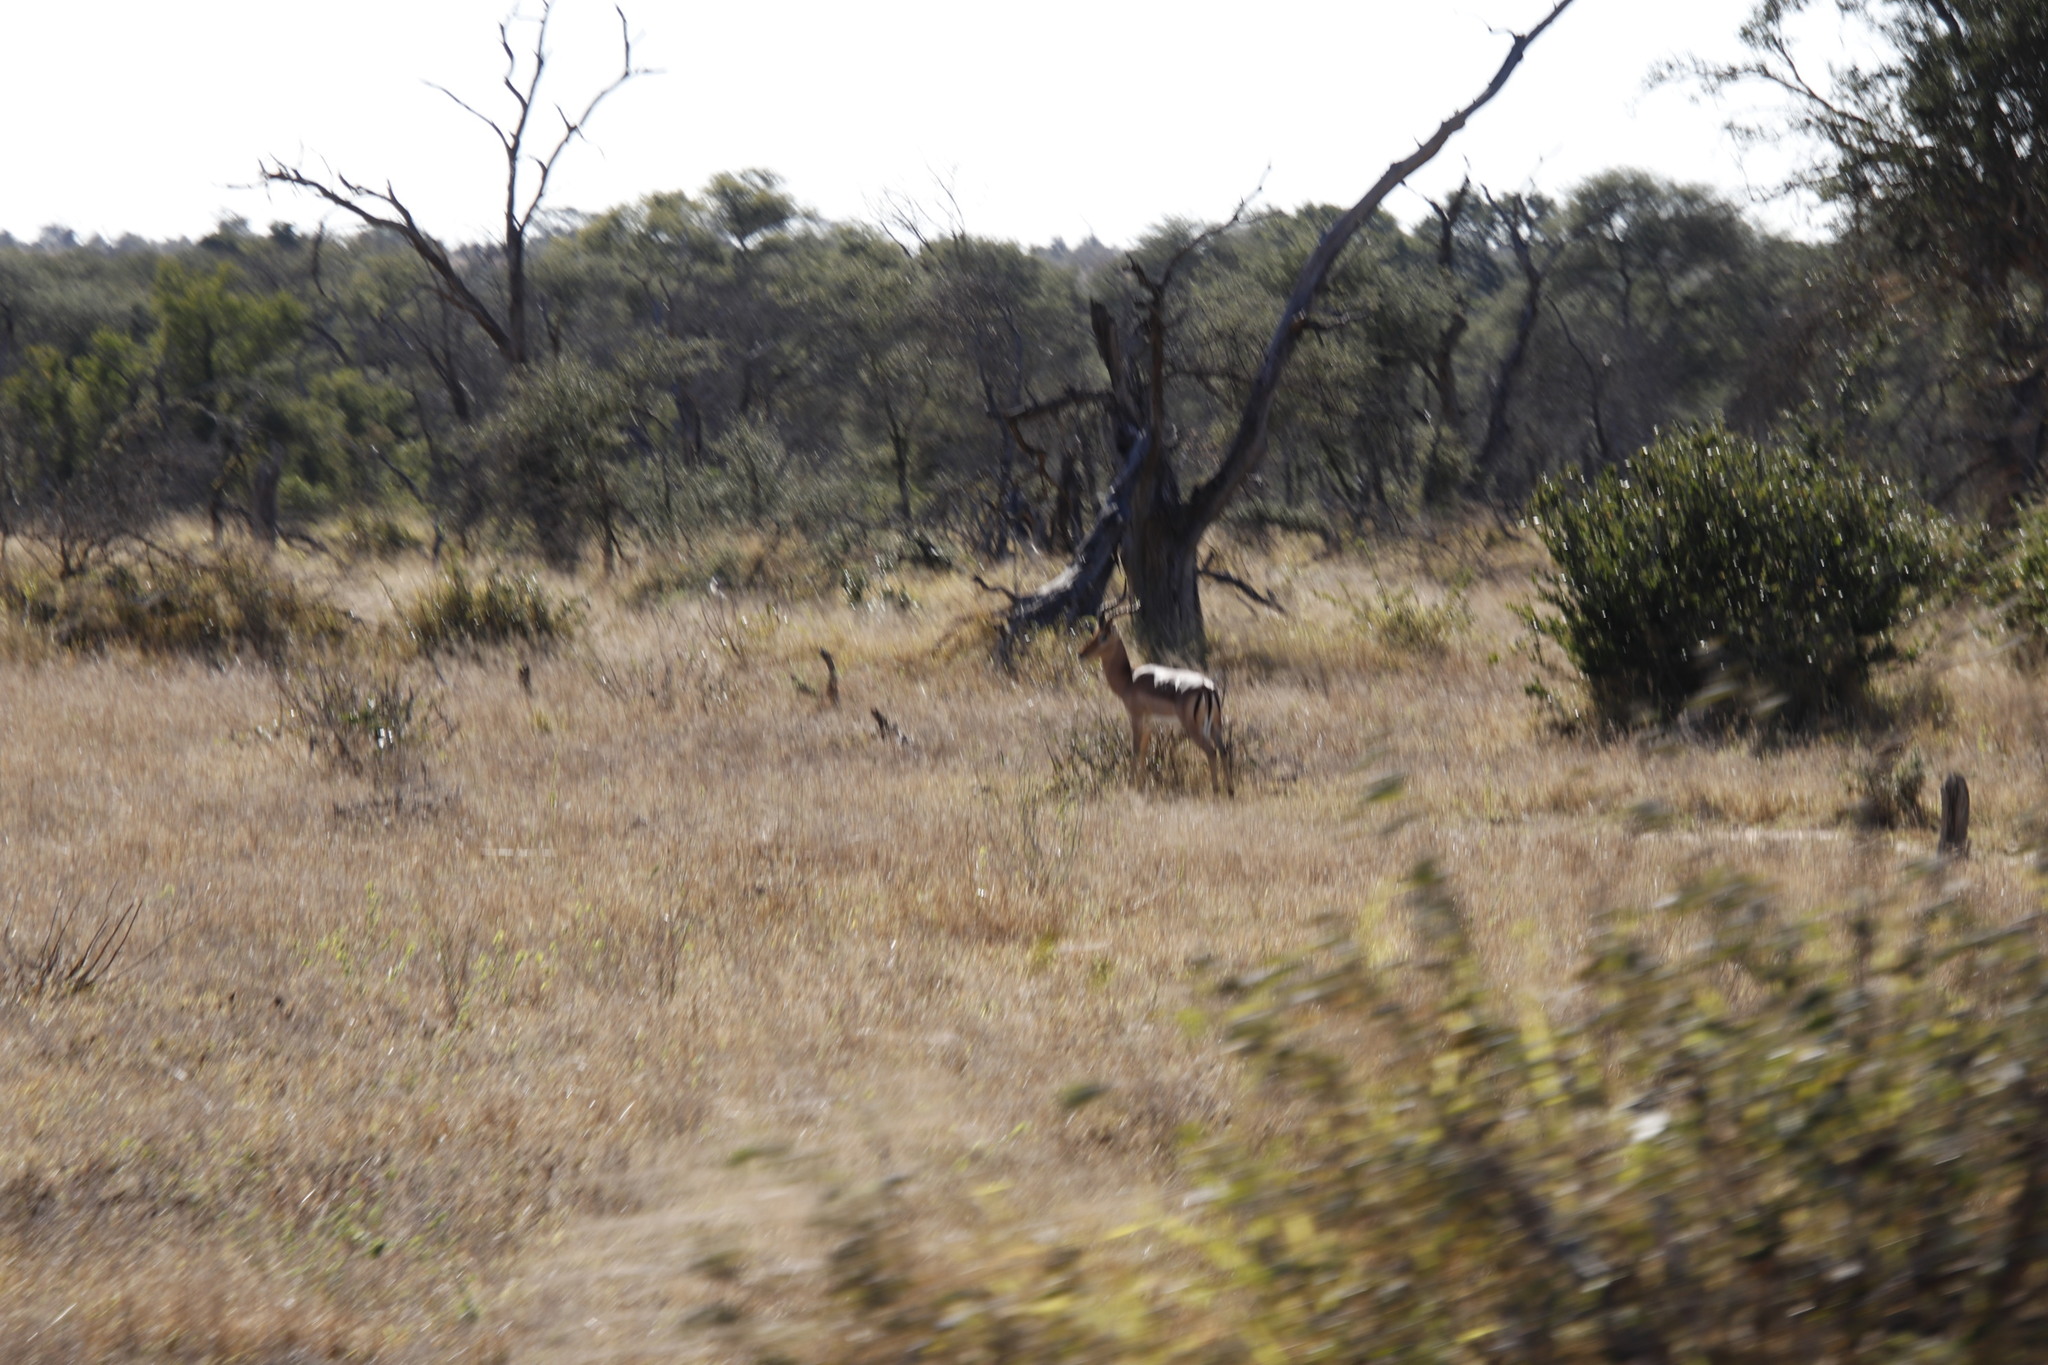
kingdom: Animalia
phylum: Chordata
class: Mammalia
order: Artiodactyla
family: Bovidae
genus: Aepyceros
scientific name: Aepyceros melampus
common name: Impala
